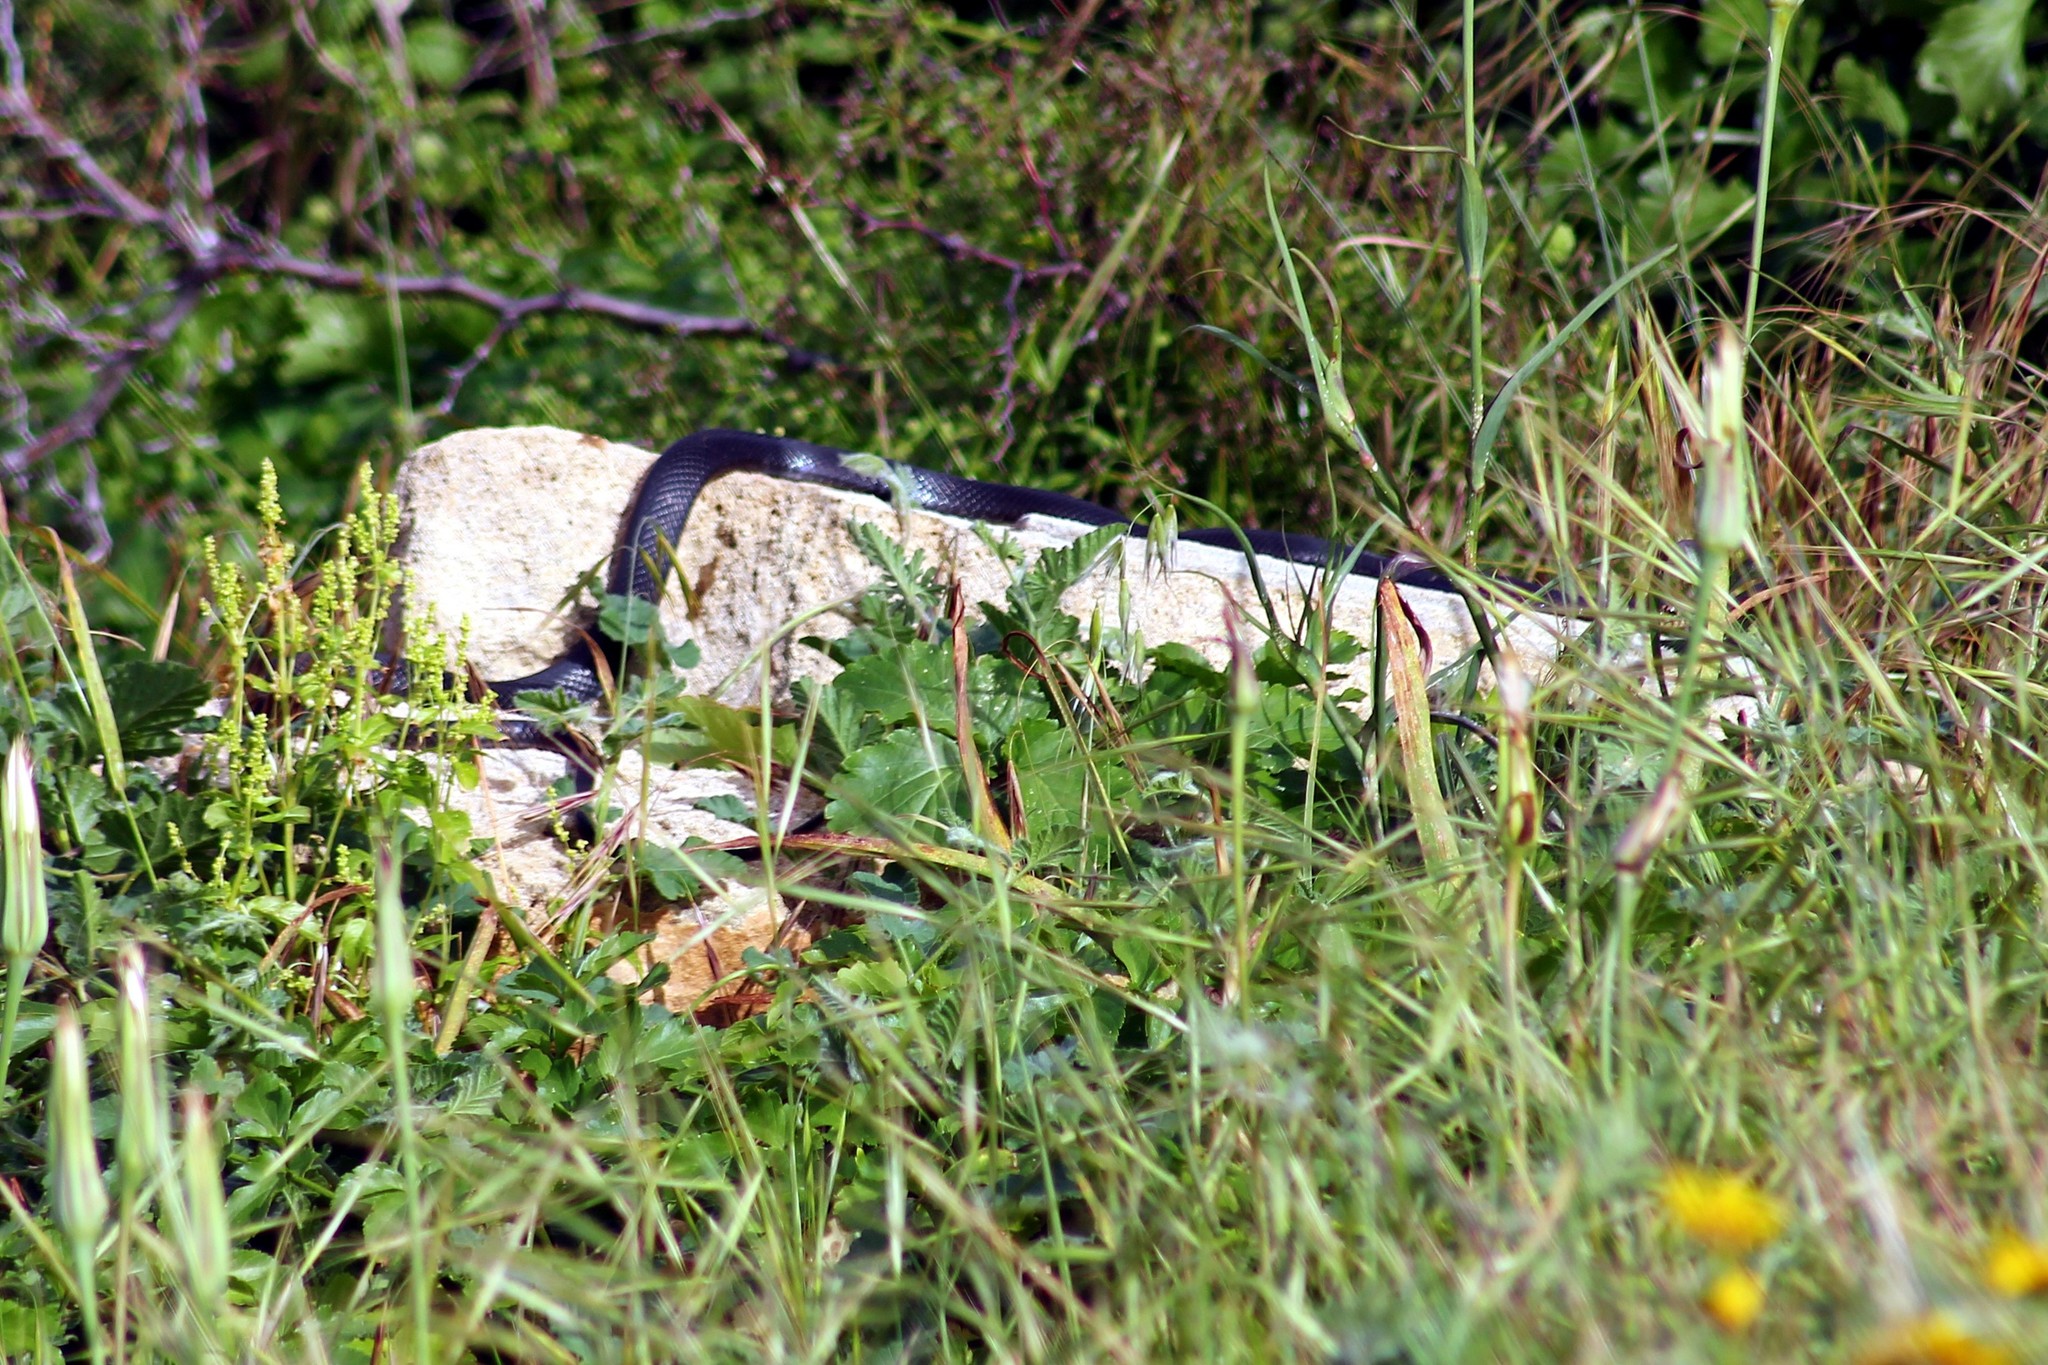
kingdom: Animalia
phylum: Chordata
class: Squamata
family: Colubridae
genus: Dolichophis
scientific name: Dolichophis jugularis
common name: Large whip snake
